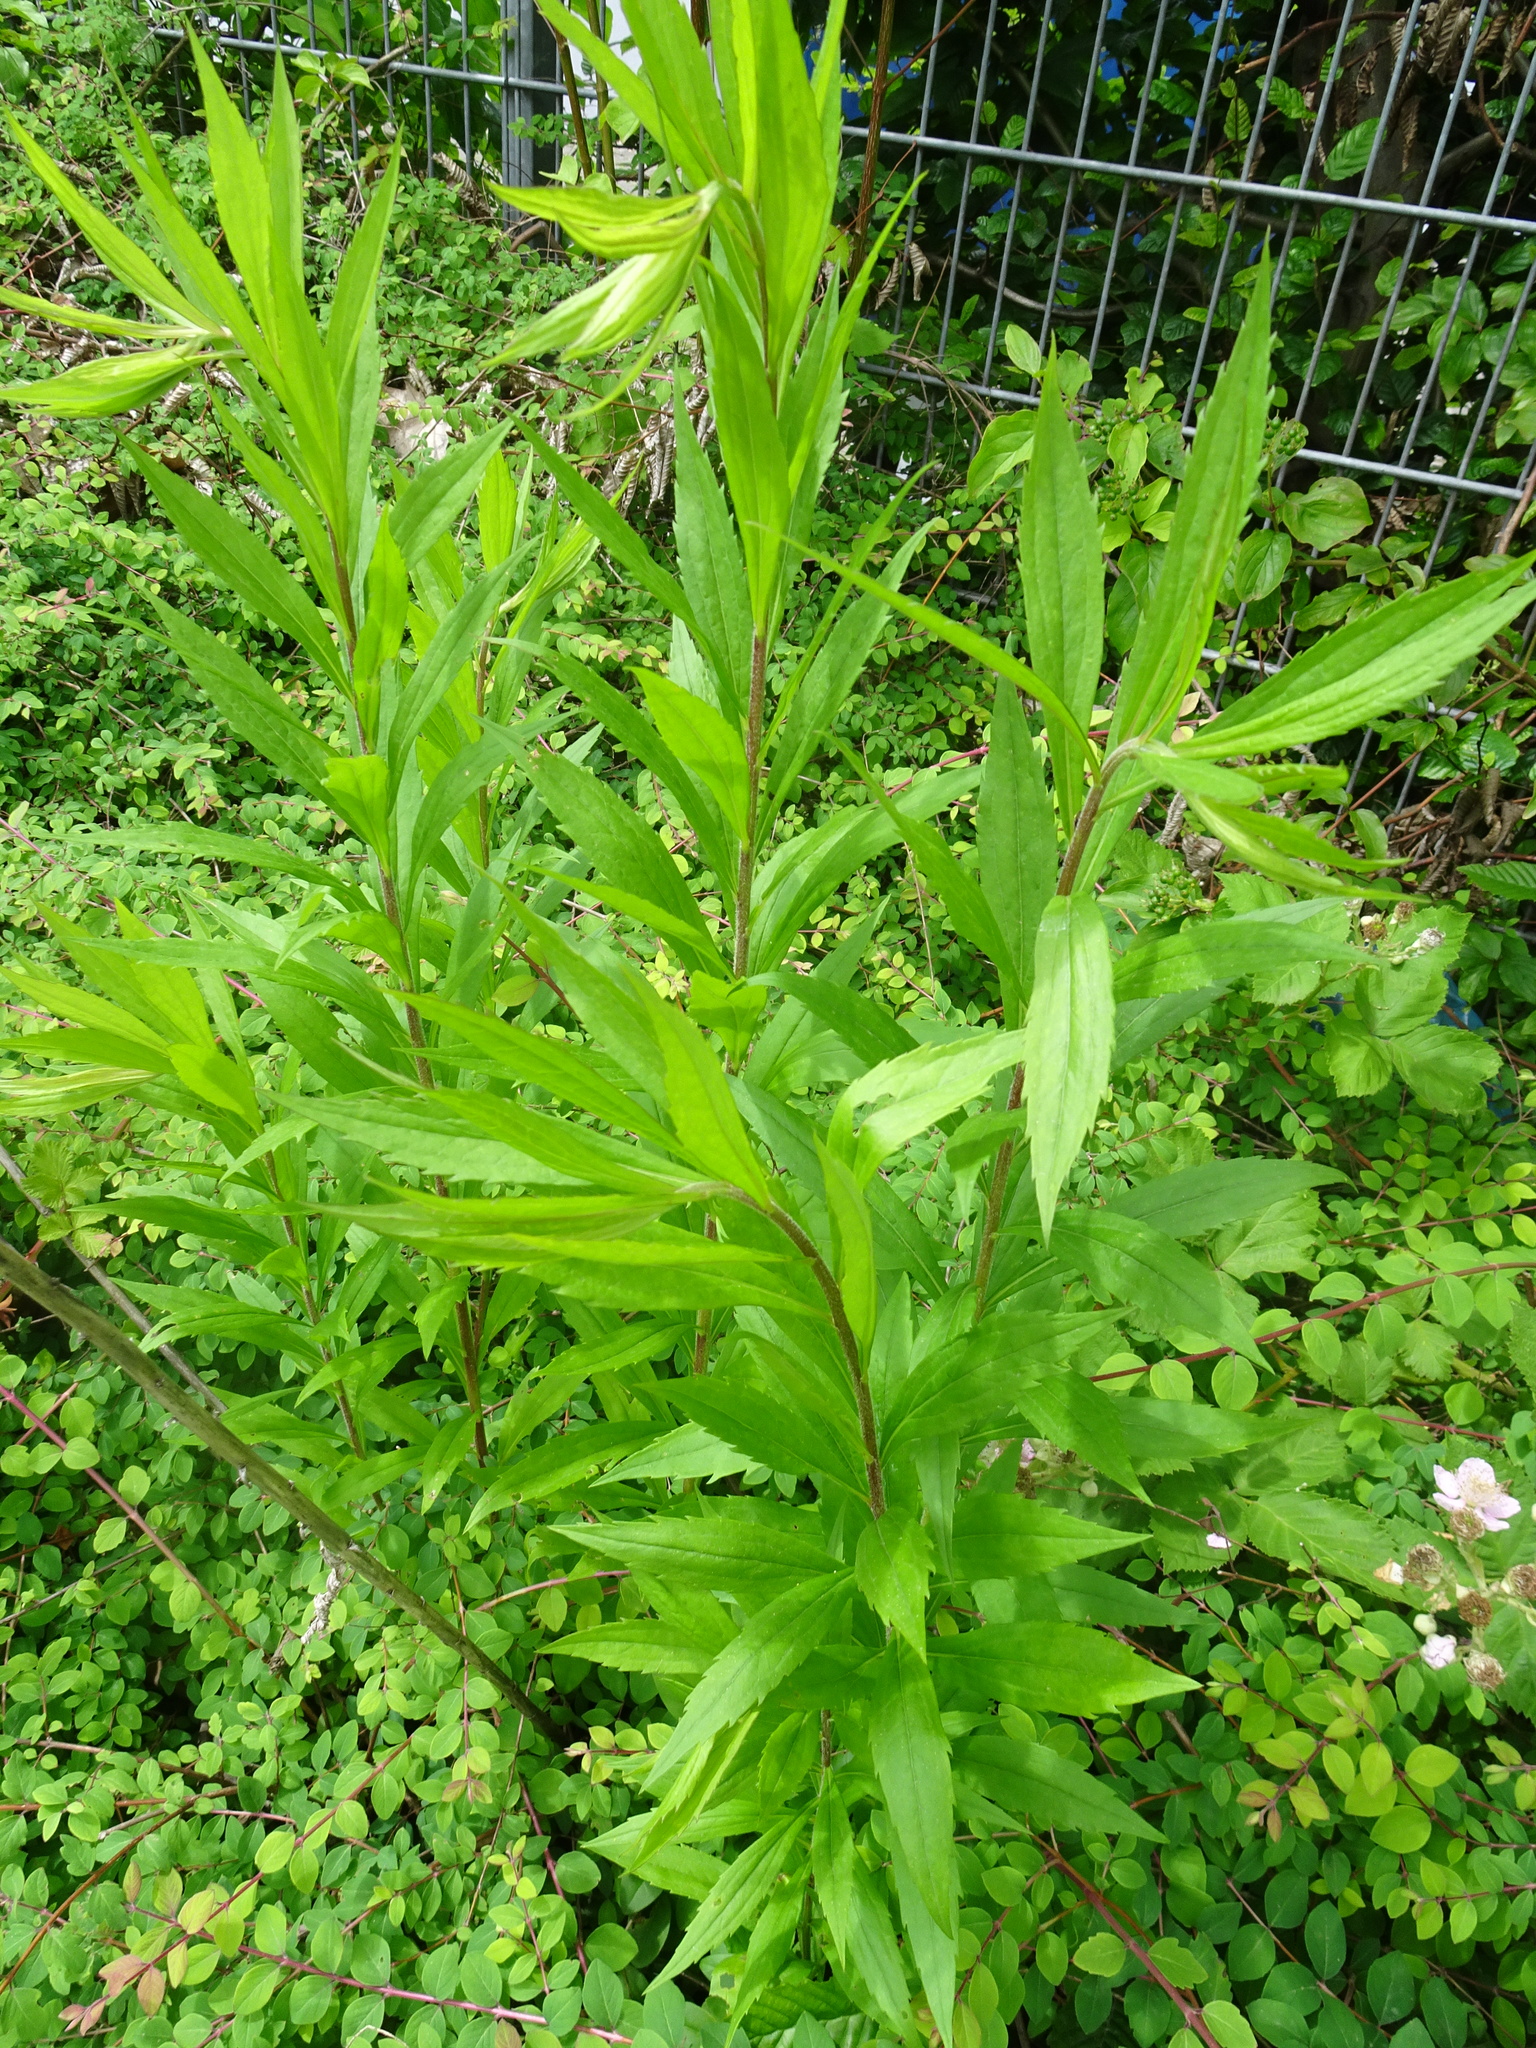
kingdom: Plantae
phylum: Tracheophyta
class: Magnoliopsida
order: Asterales
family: Asteraceae
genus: Solidago
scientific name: Solidago canadensis
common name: Canada goldenrod
